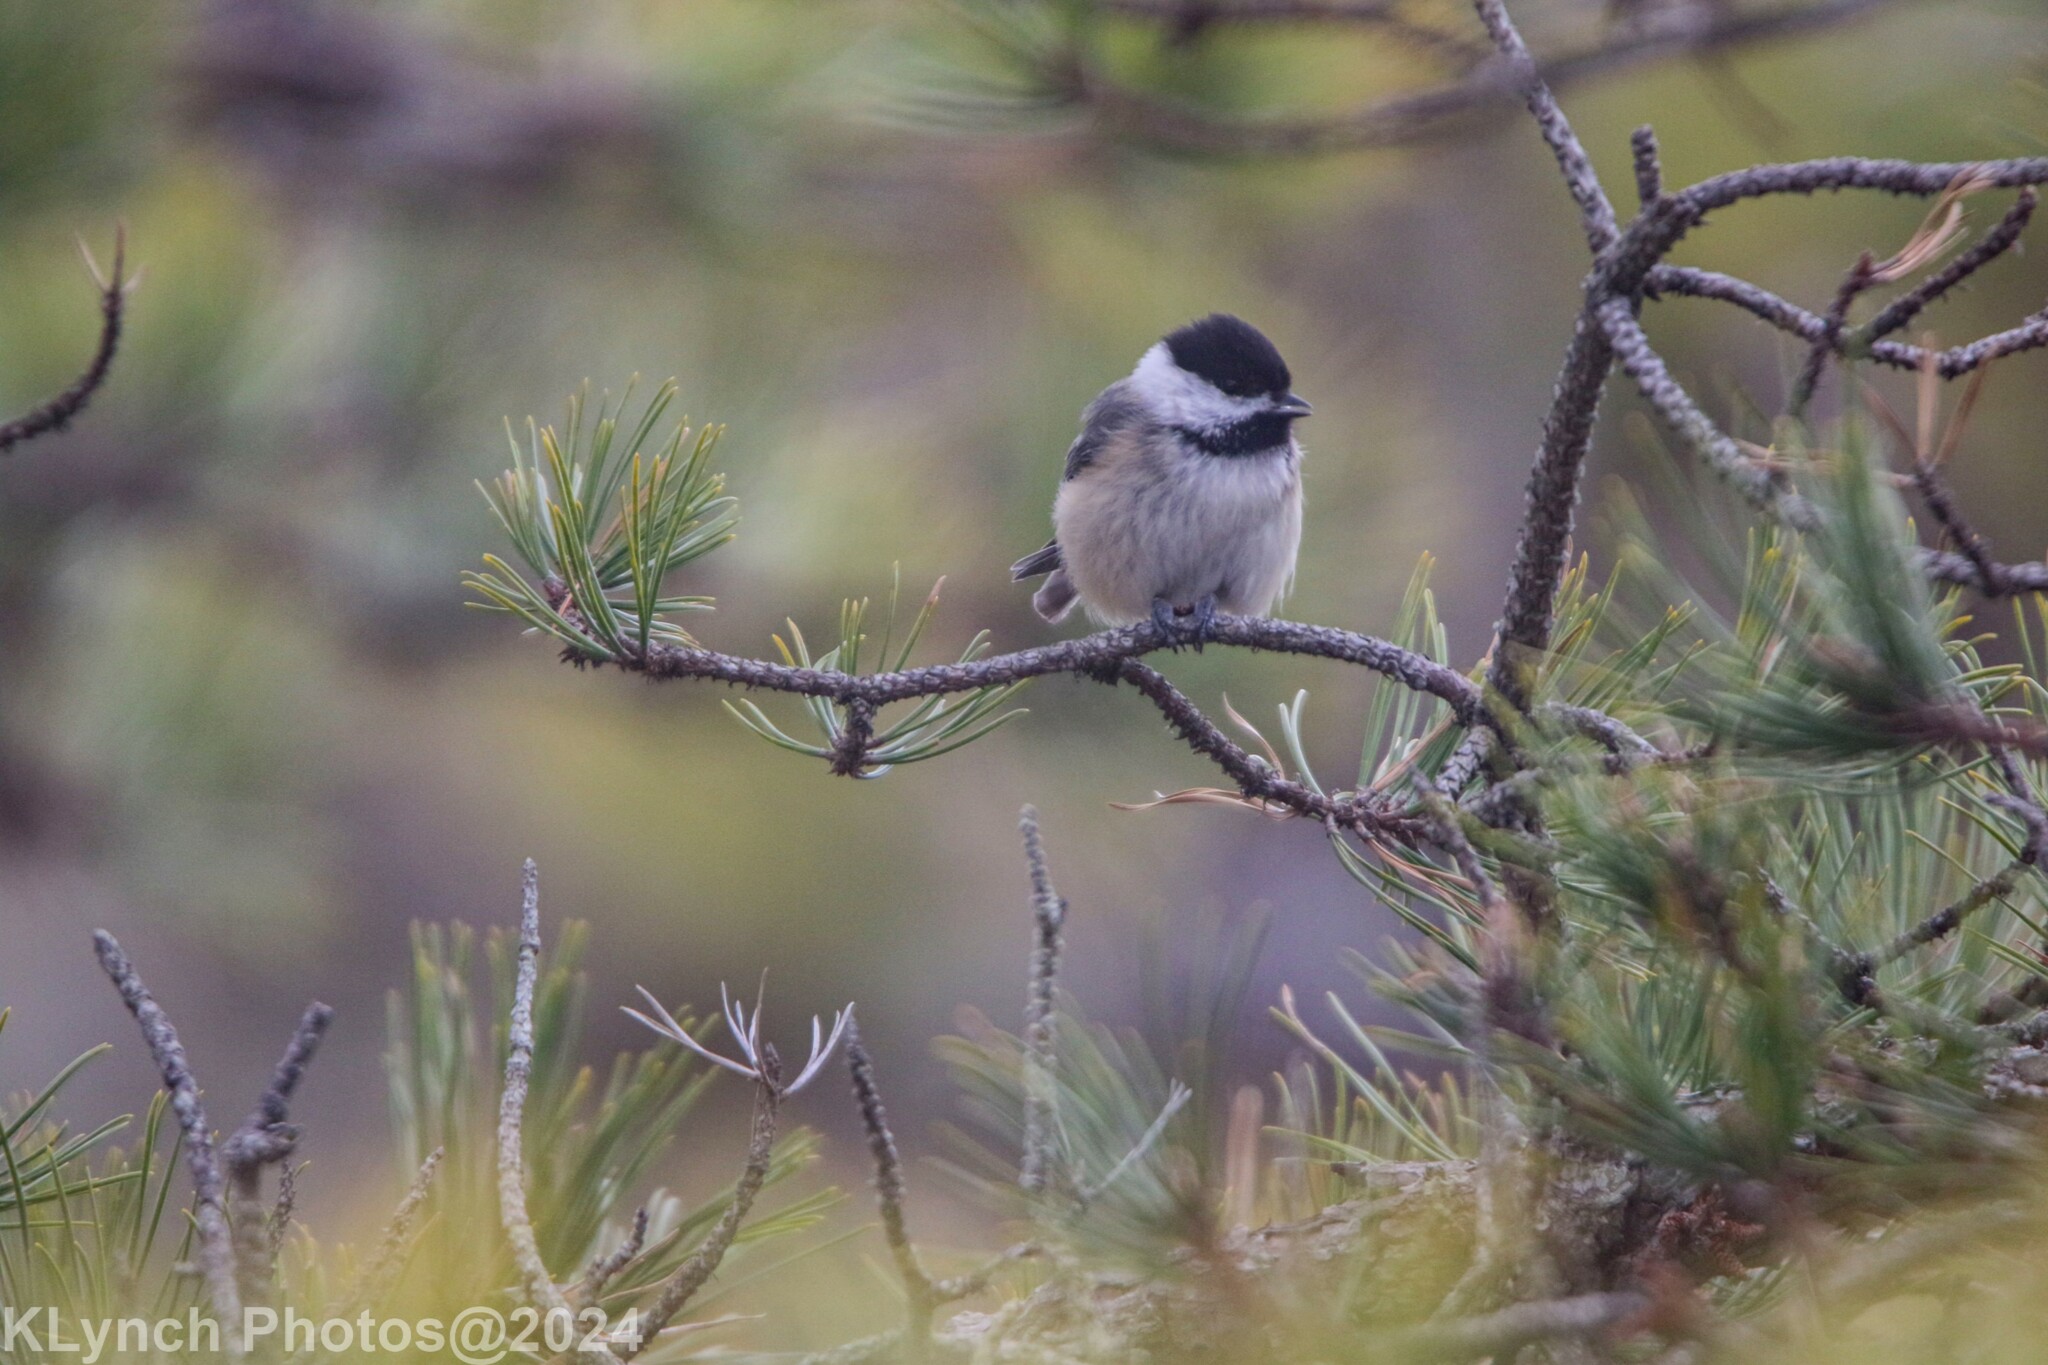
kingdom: Animalia
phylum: Chordata
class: Aves
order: Passeriformes
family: Paridae
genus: Poecile
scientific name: Poecile atricapillus
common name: Black-capped chickadee
